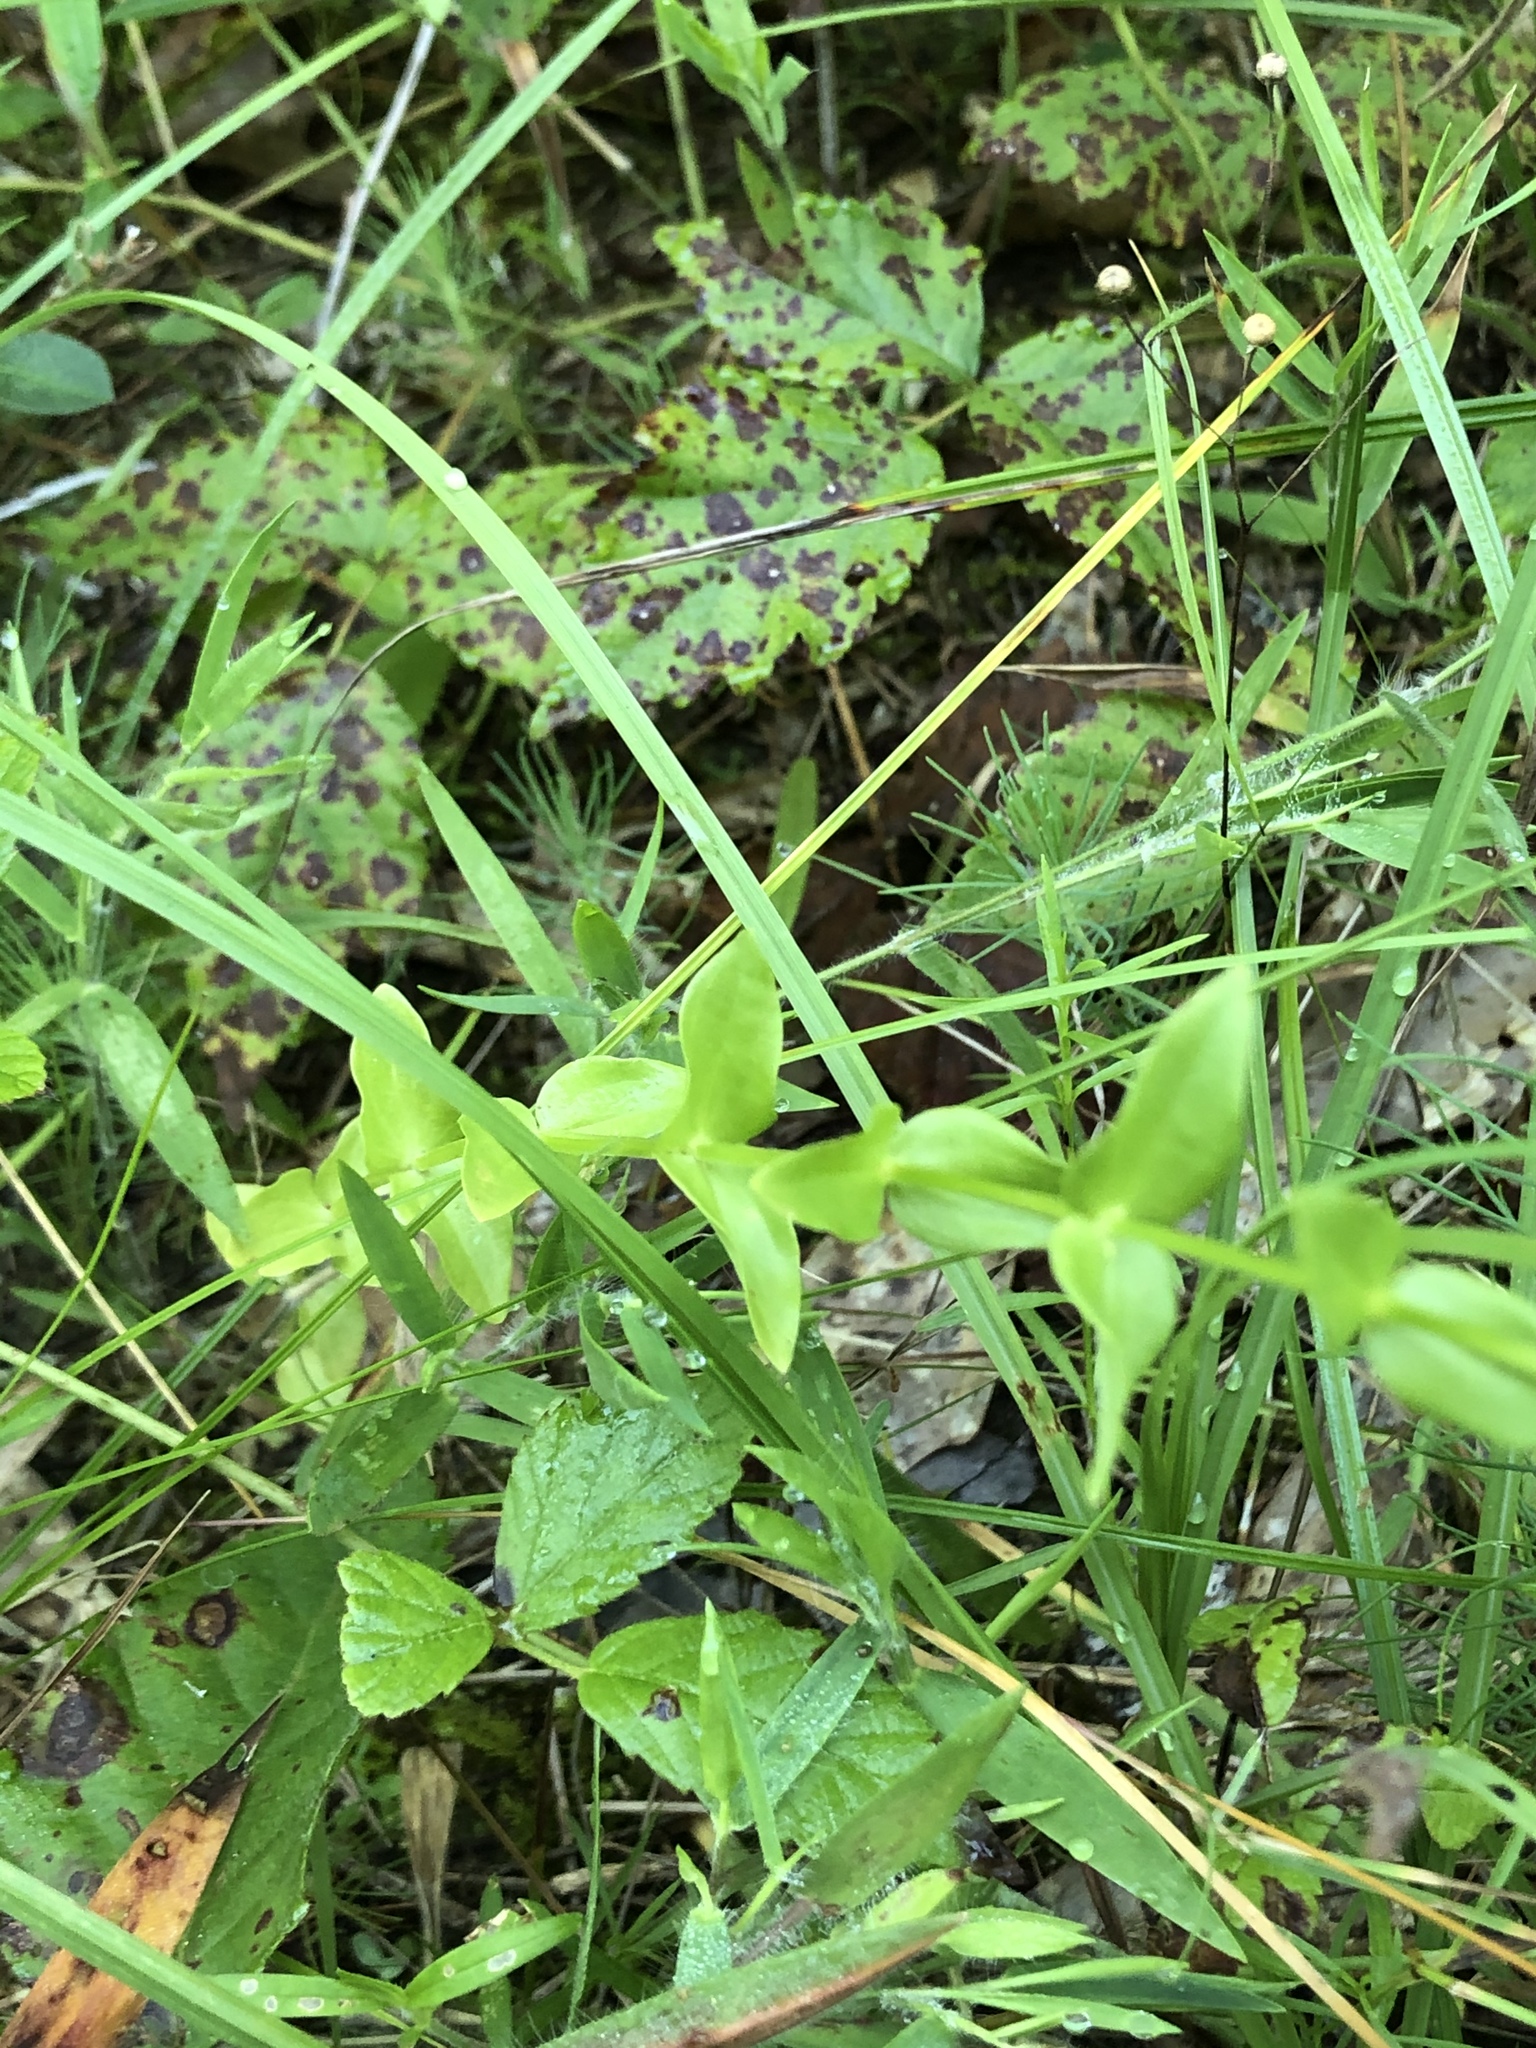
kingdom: Plantae
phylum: Tracheophyta
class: Magnoliopsida
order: Gentianales
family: Gentianaceae
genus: Sabatia
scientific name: Sabatia angularis
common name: Rose-pink
